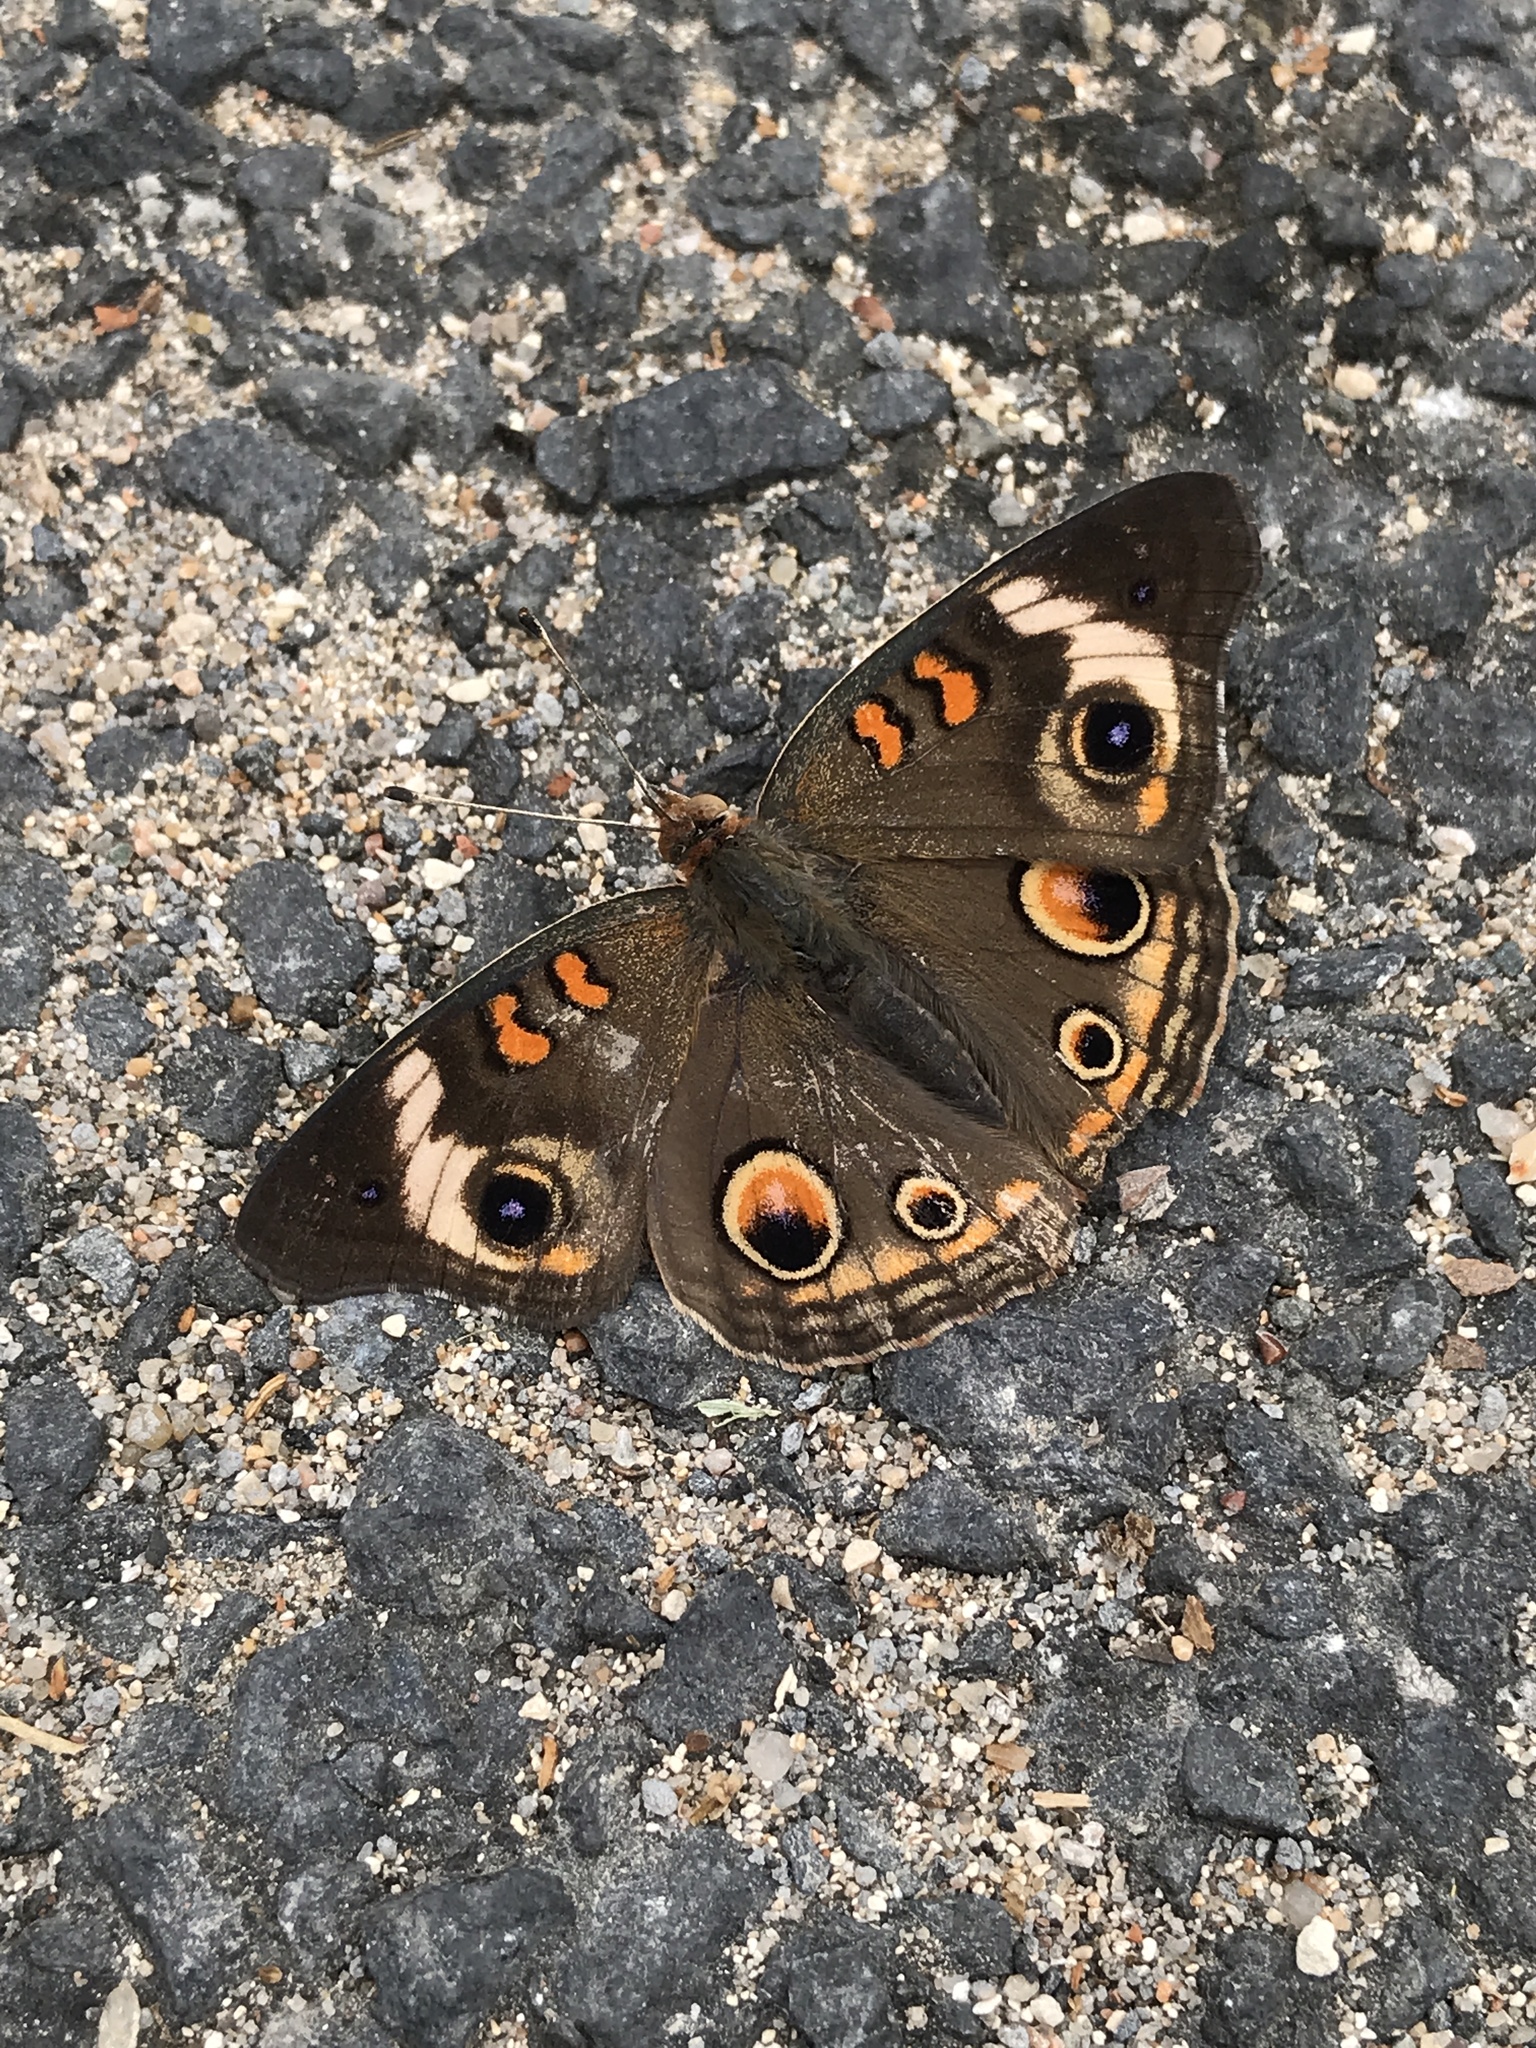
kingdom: Animalia
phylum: Arthropoda
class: Insecta
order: Lepidoptera
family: Nymphalidae
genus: Junonia
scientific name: Junonia coenia
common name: Common buckeye
